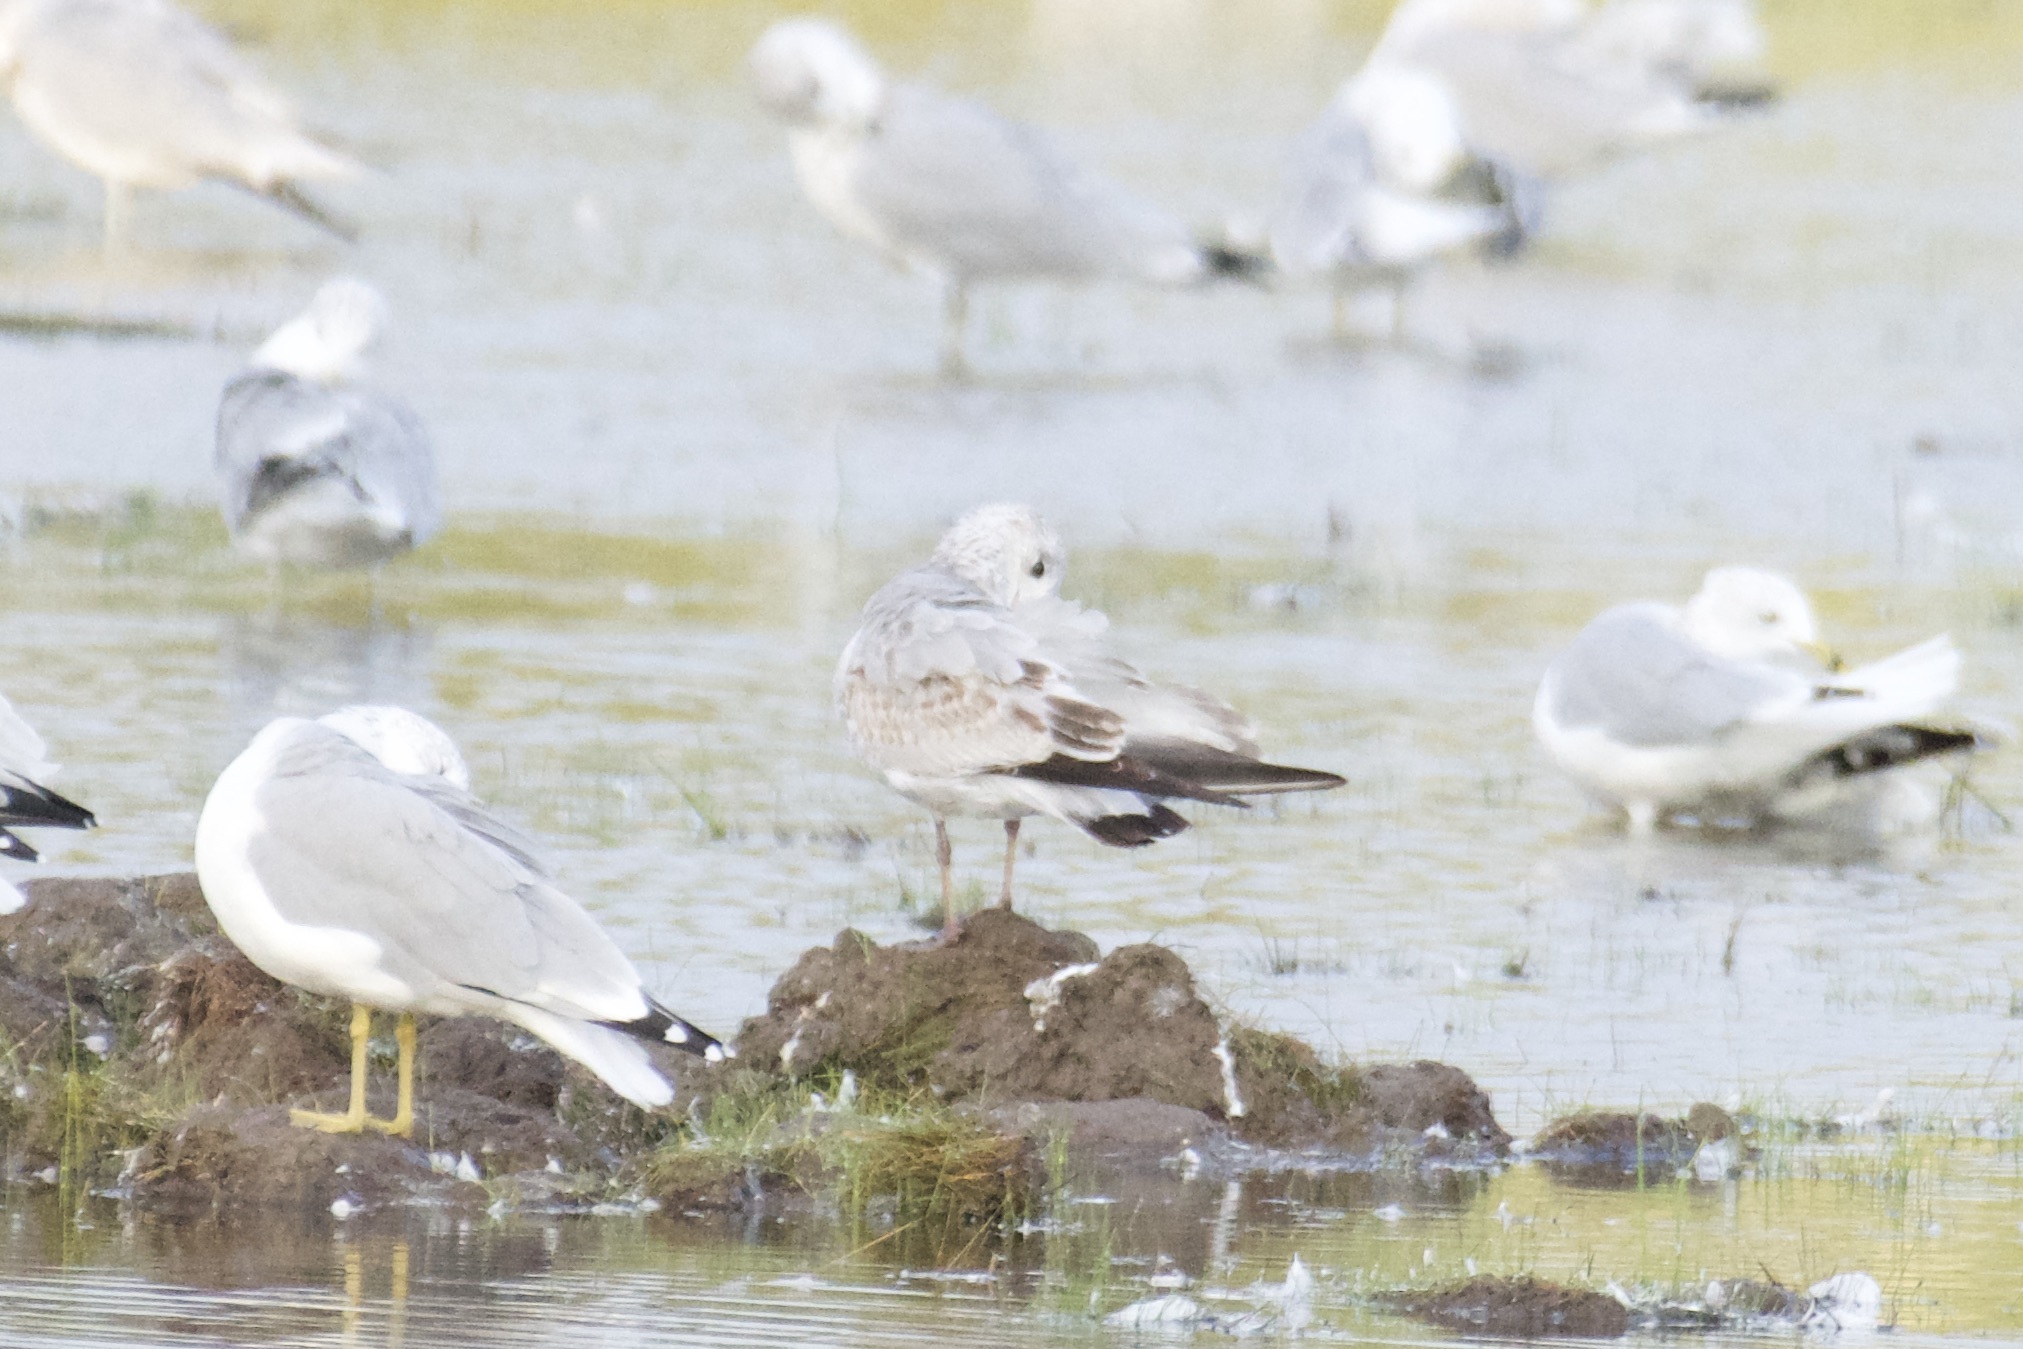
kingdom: Animalia
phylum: Chordata
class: Aves
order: Charadriiformes
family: Laridae
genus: Larus
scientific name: Larus delawarensis
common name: Ring-billed gull
